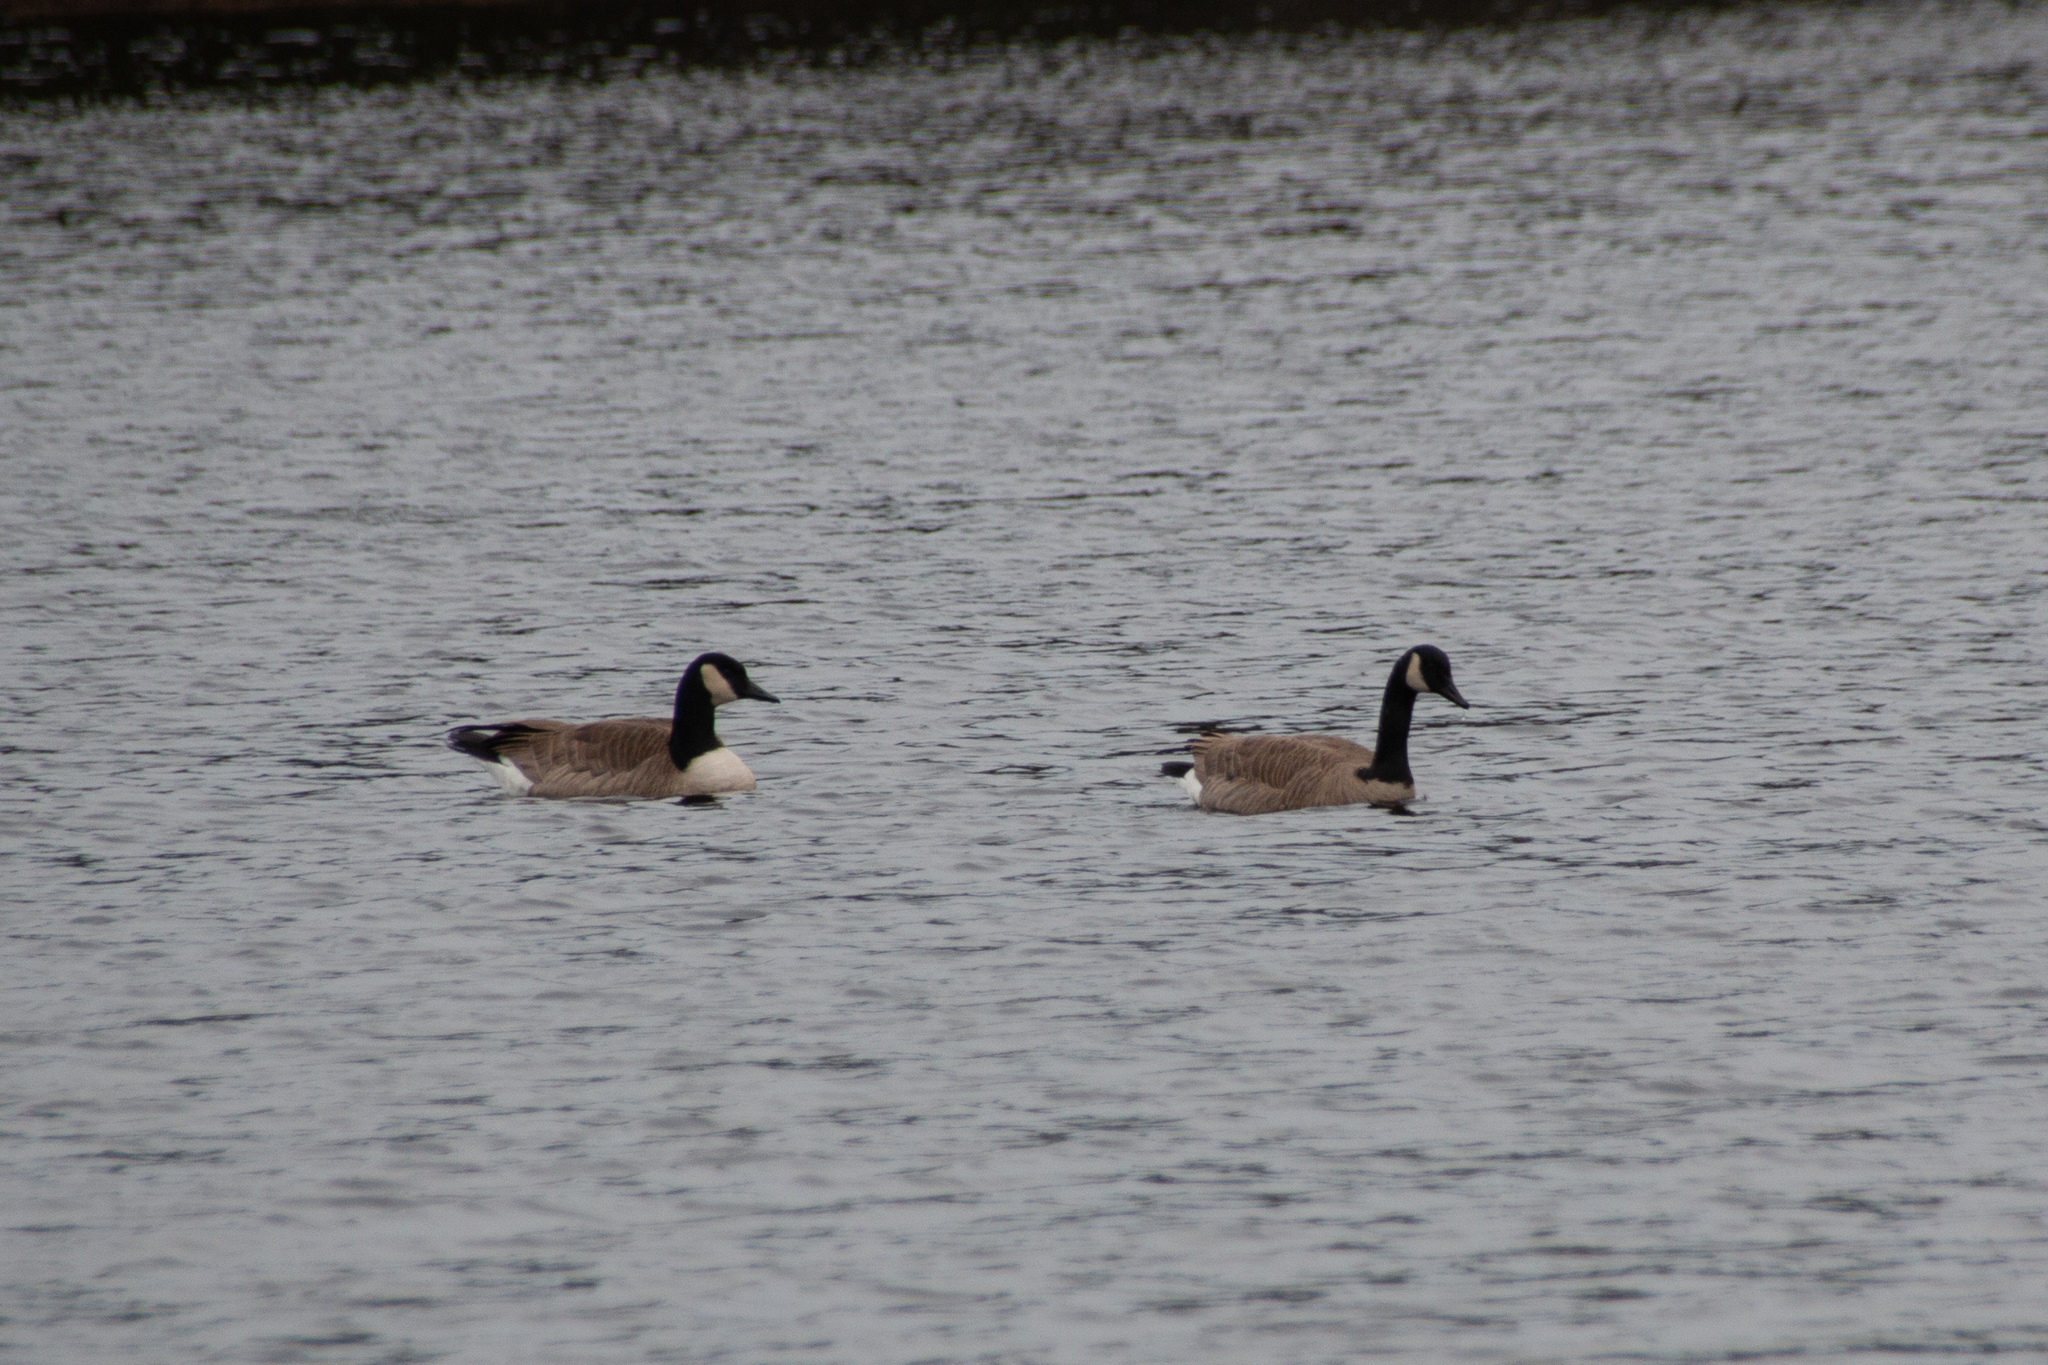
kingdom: Animalia
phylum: Chordata
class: Aves
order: Anseriformes
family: Anatidae
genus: Branta
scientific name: Branta canadensis
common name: Canada goose
